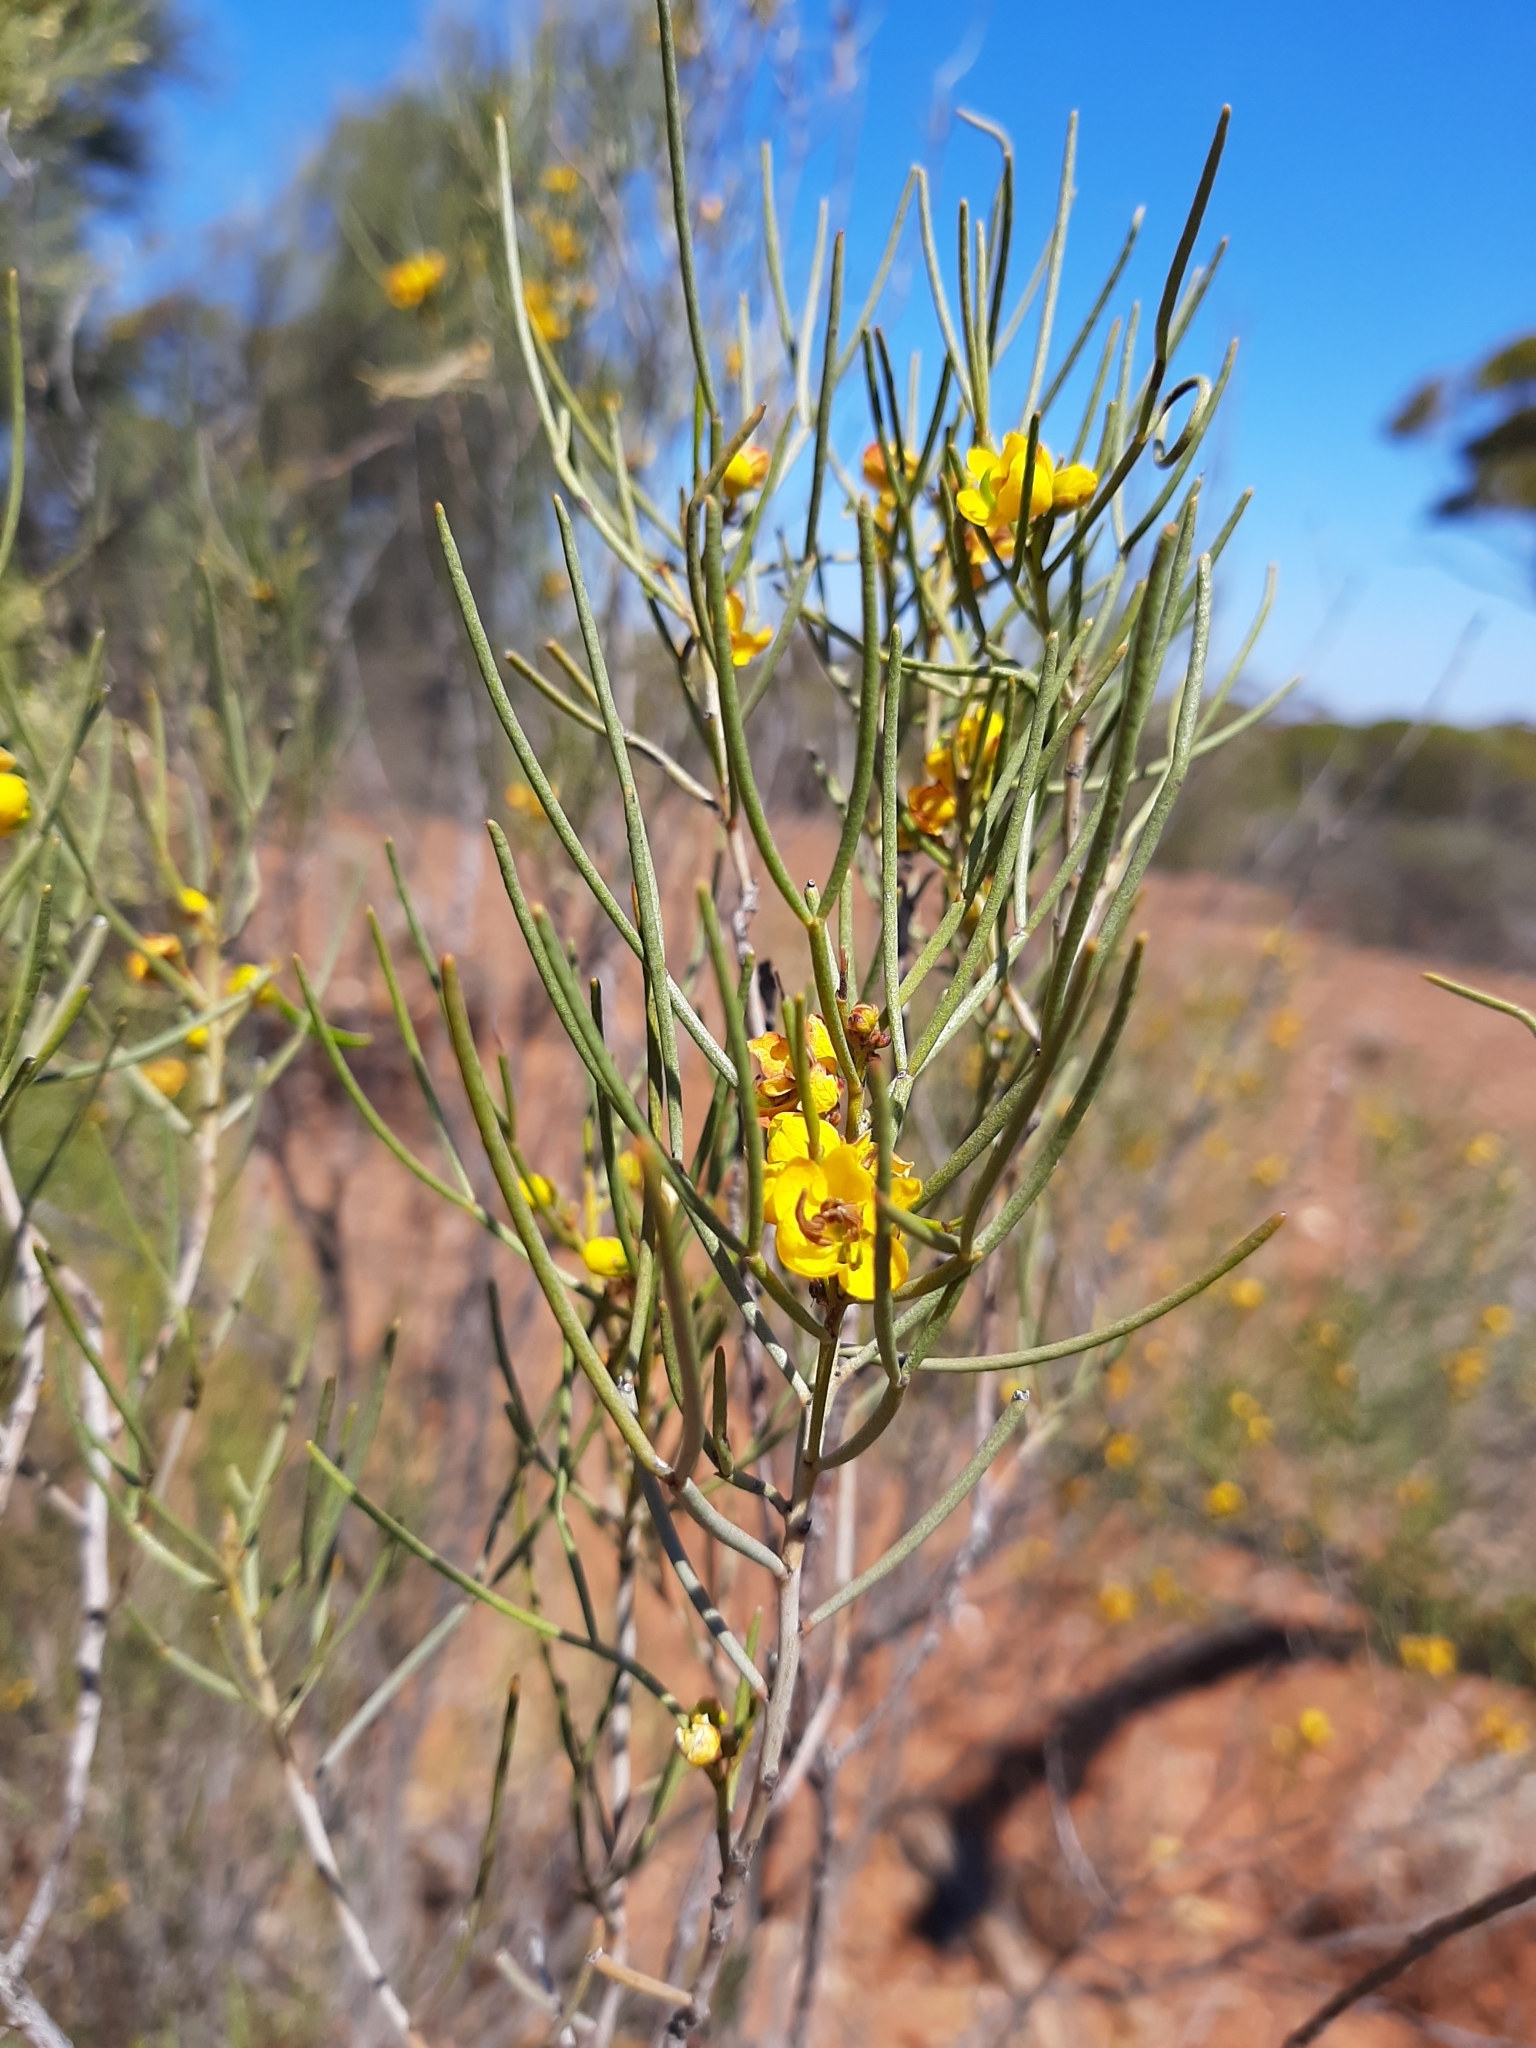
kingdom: Plantae
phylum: Tracheophyta
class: Magnoliopsida
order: Fabales
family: Fabaceae
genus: Senna
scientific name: Senna artemisioides
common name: Burnt-leaved acacia
